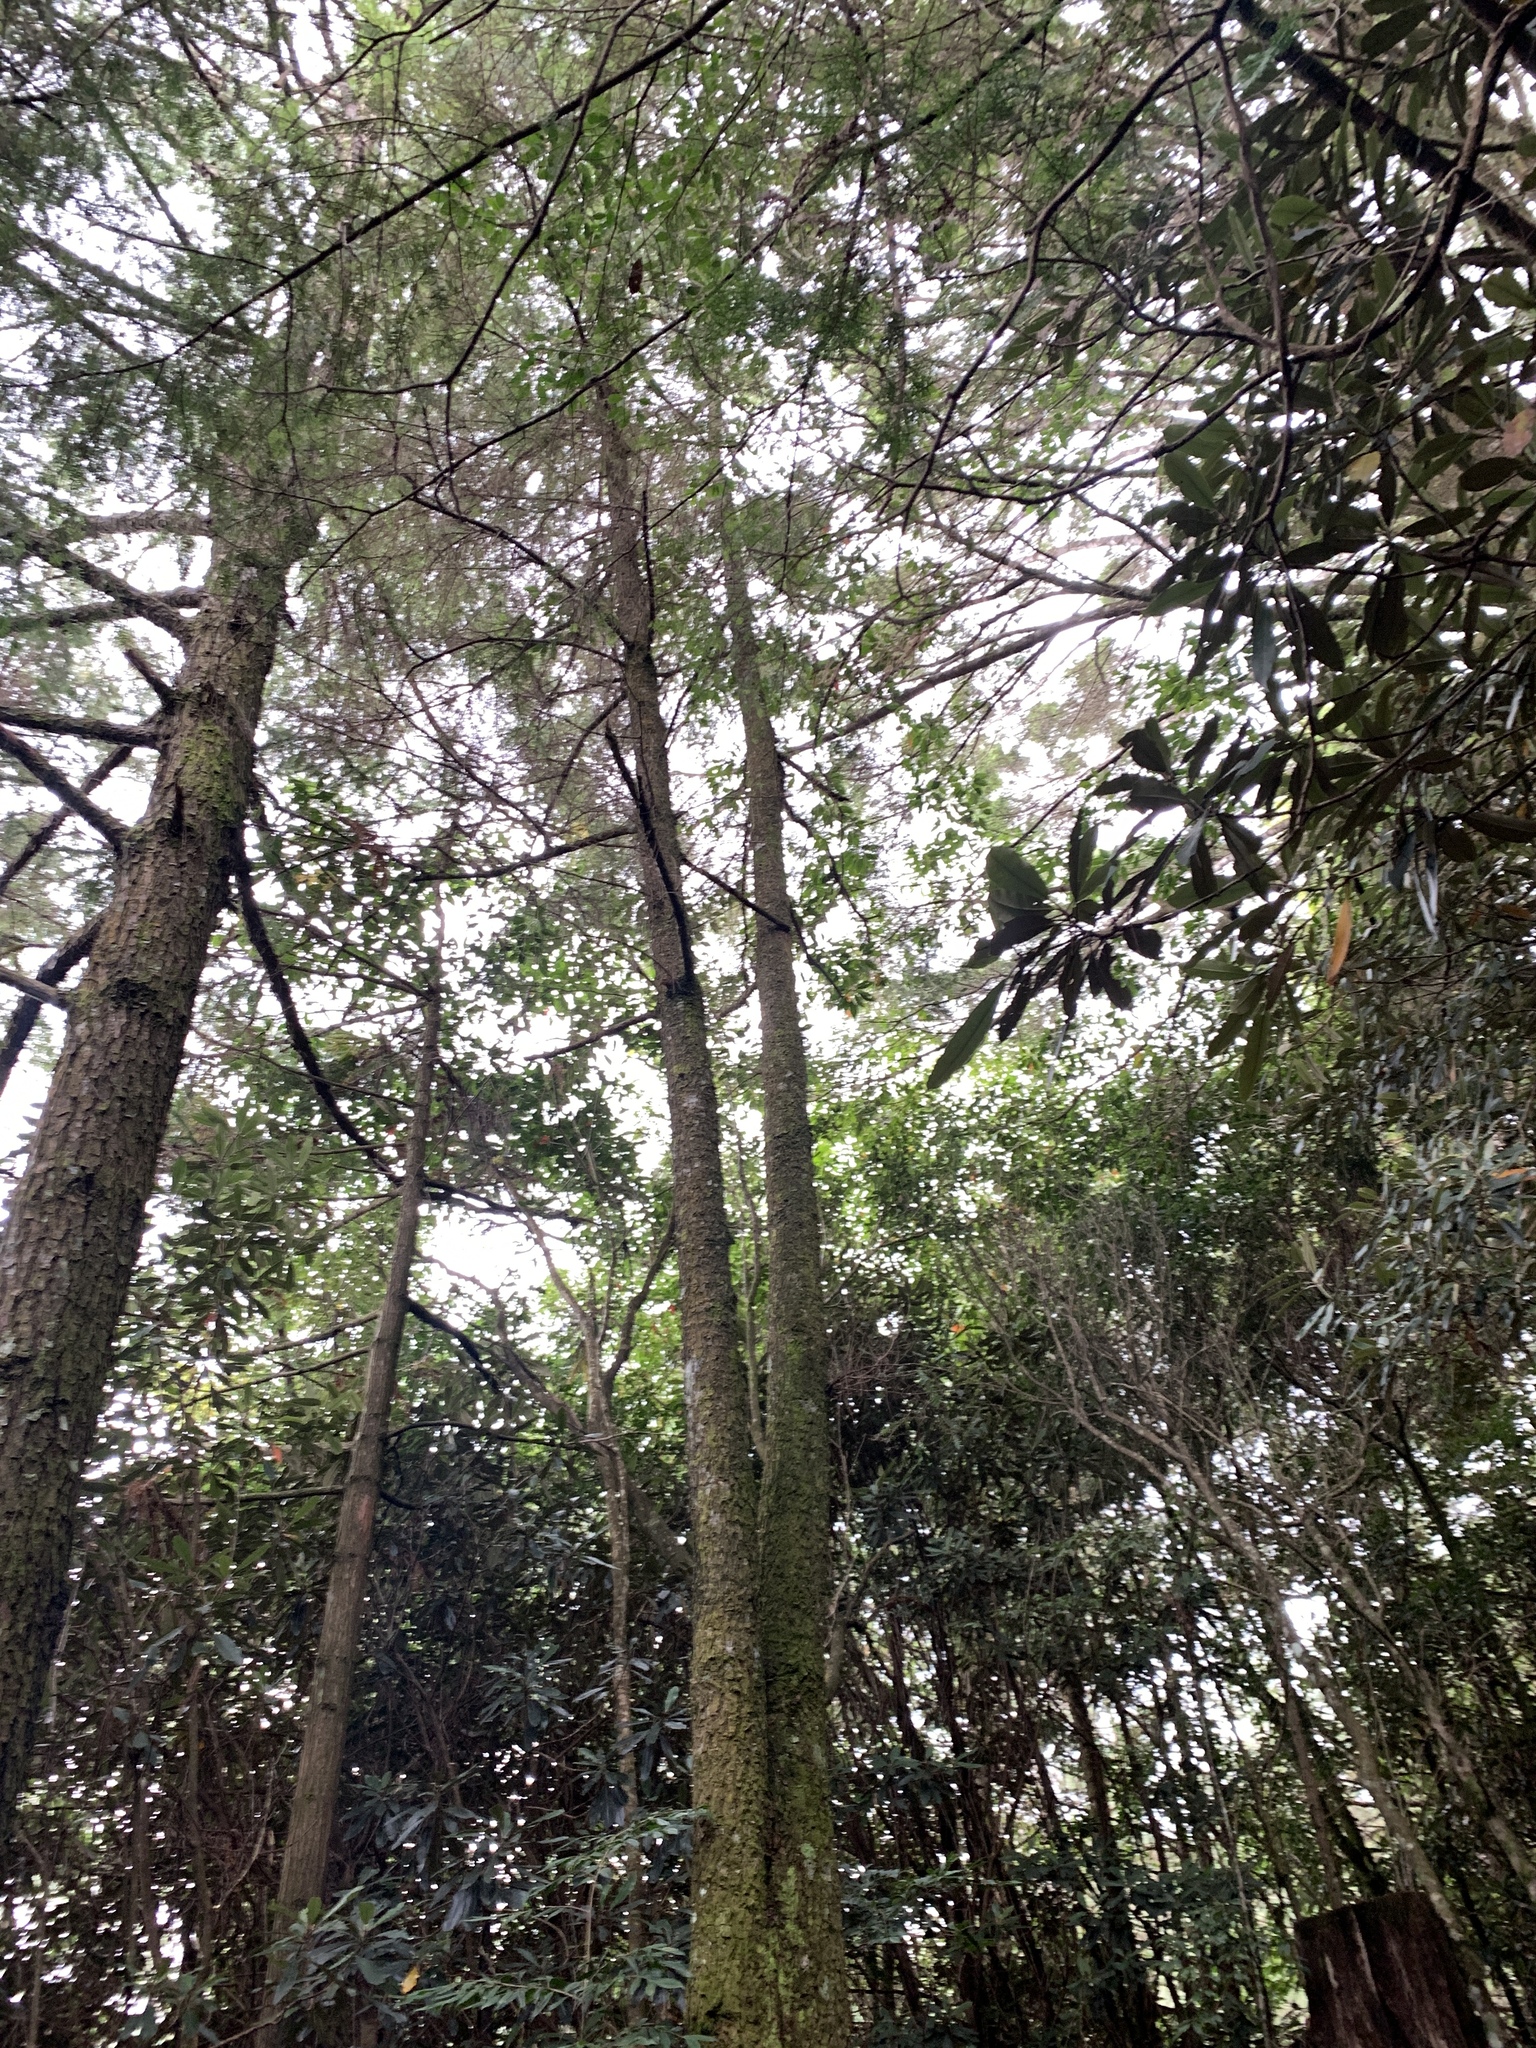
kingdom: Plantae
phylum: Tracheophyta
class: Pinopsida
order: Pinales
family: Pinaceae
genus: Pseudotsuga
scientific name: Pseudotsuga sinensis
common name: Chinese douglas-fir
